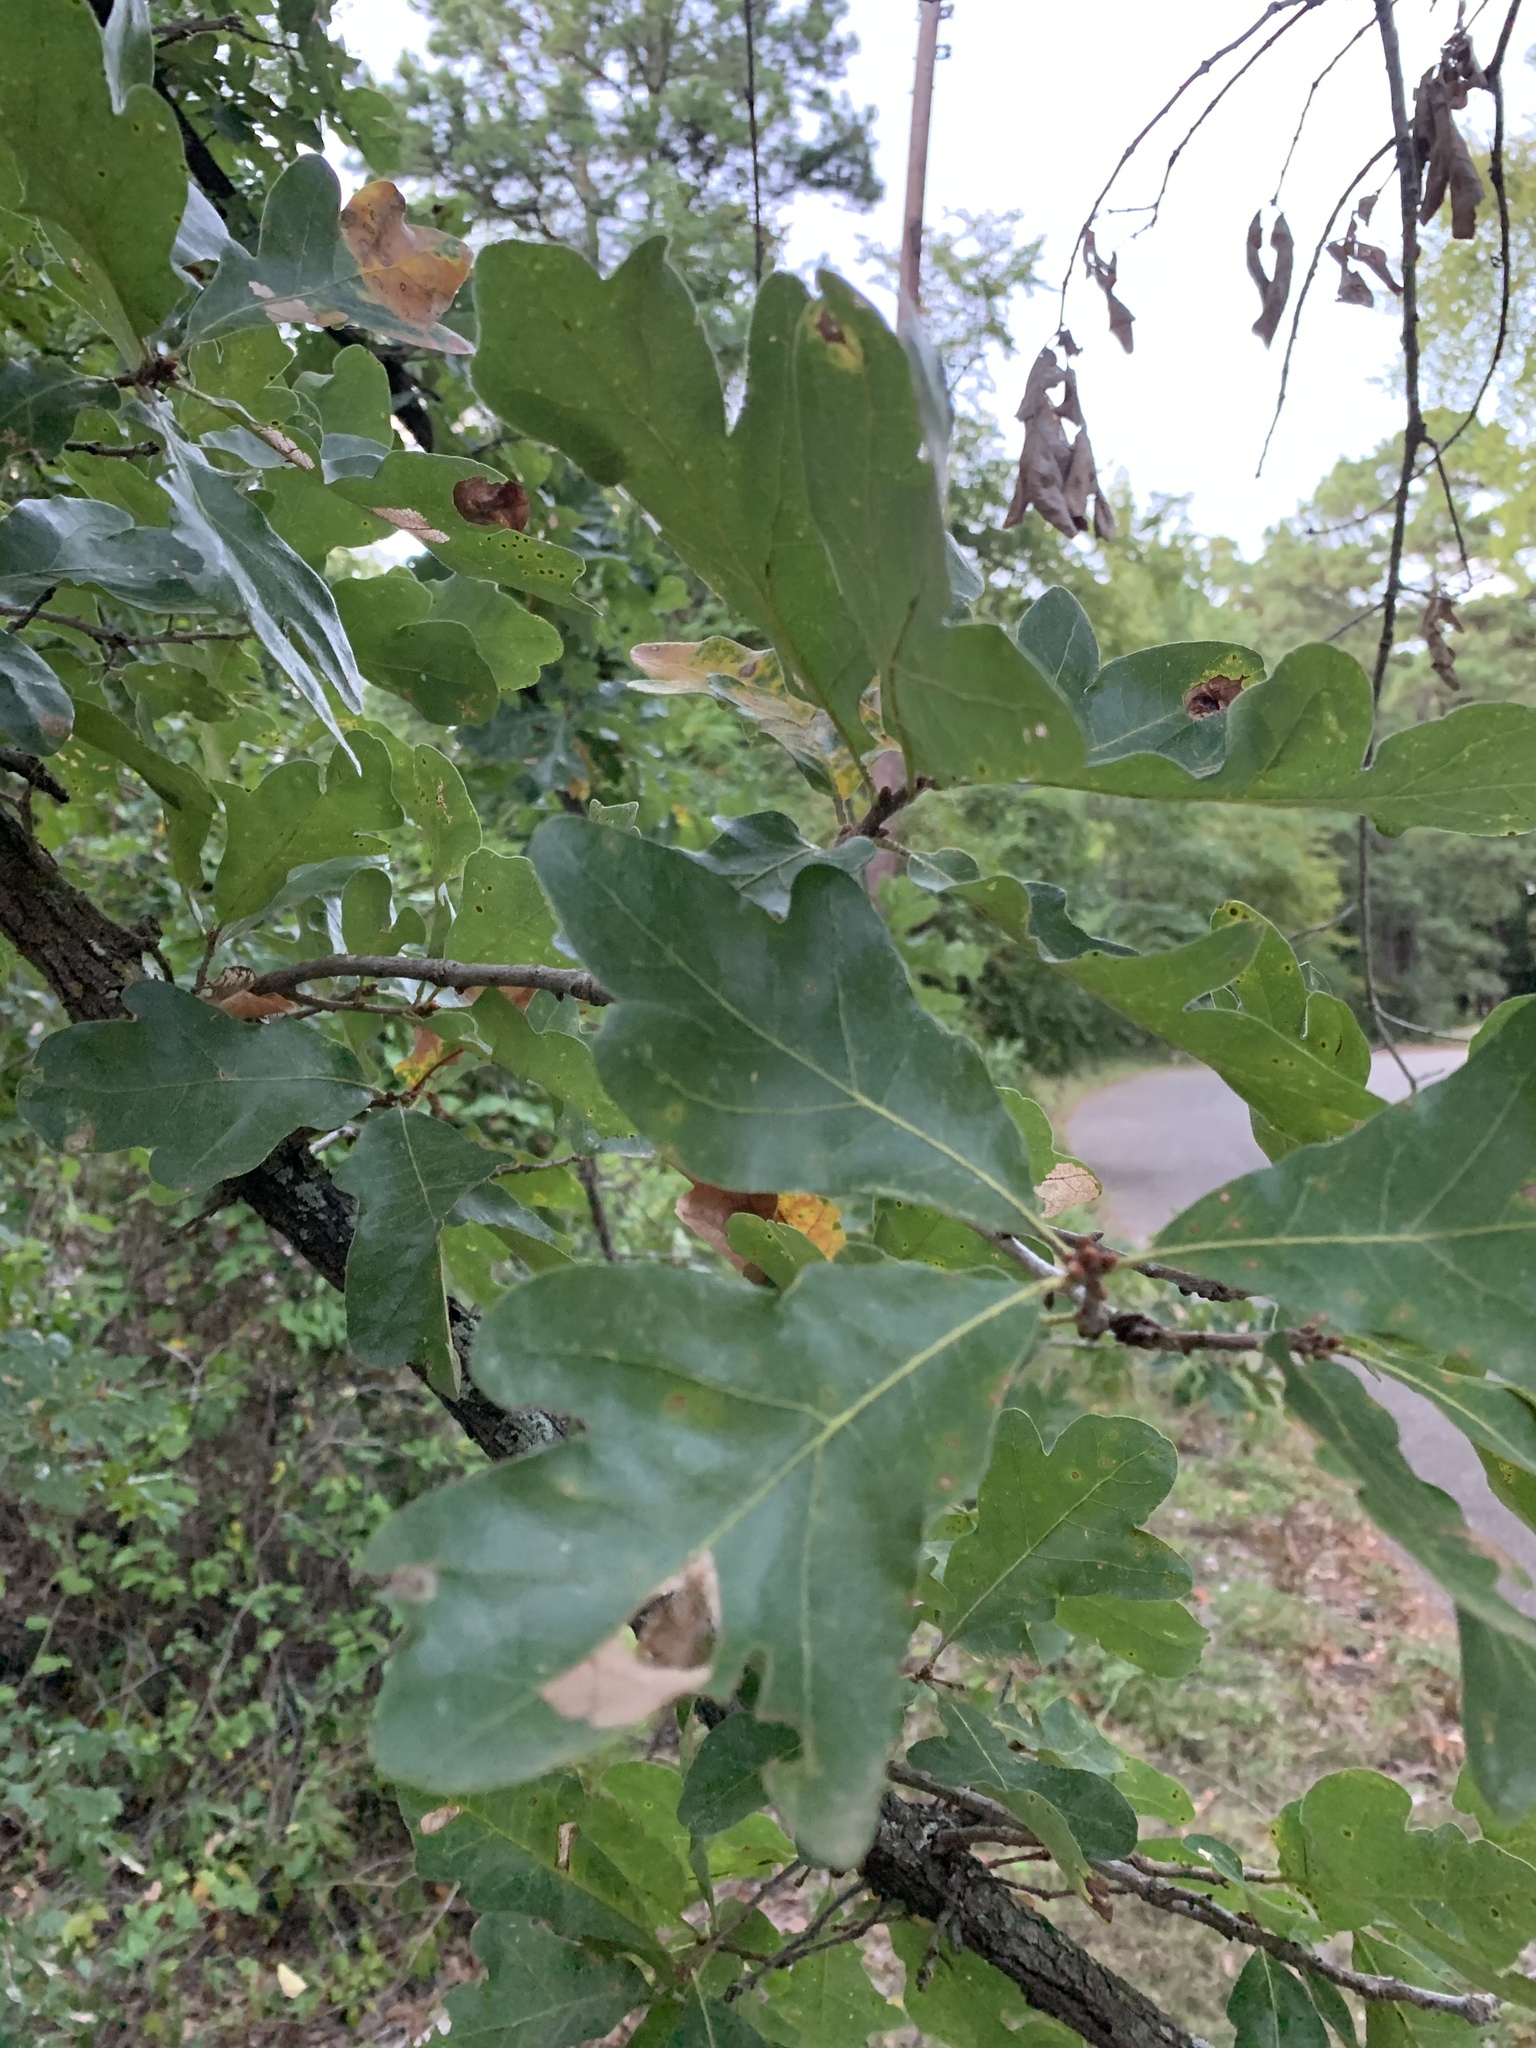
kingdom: Plantae
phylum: Tracheophyta
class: Magnoliopsida
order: Fagales
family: Fagaceae
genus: Quercus
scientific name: Quercus stellata
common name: Post oak
